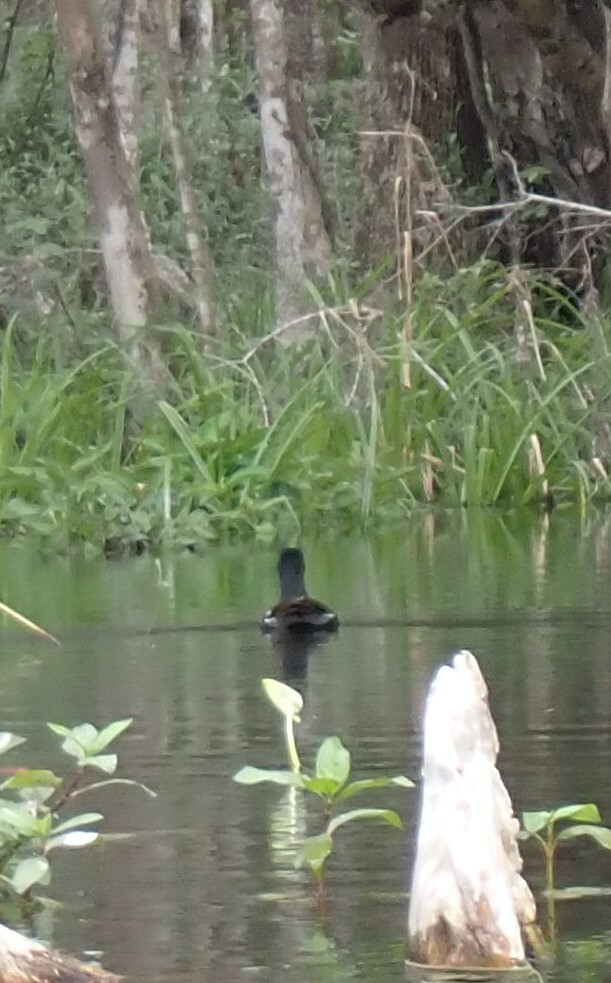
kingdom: Animalia
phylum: Chordata
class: Aves
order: Gruiformes
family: Rallidae
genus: Gallinula
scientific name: Gallinula chloropus
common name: Common moorhen
